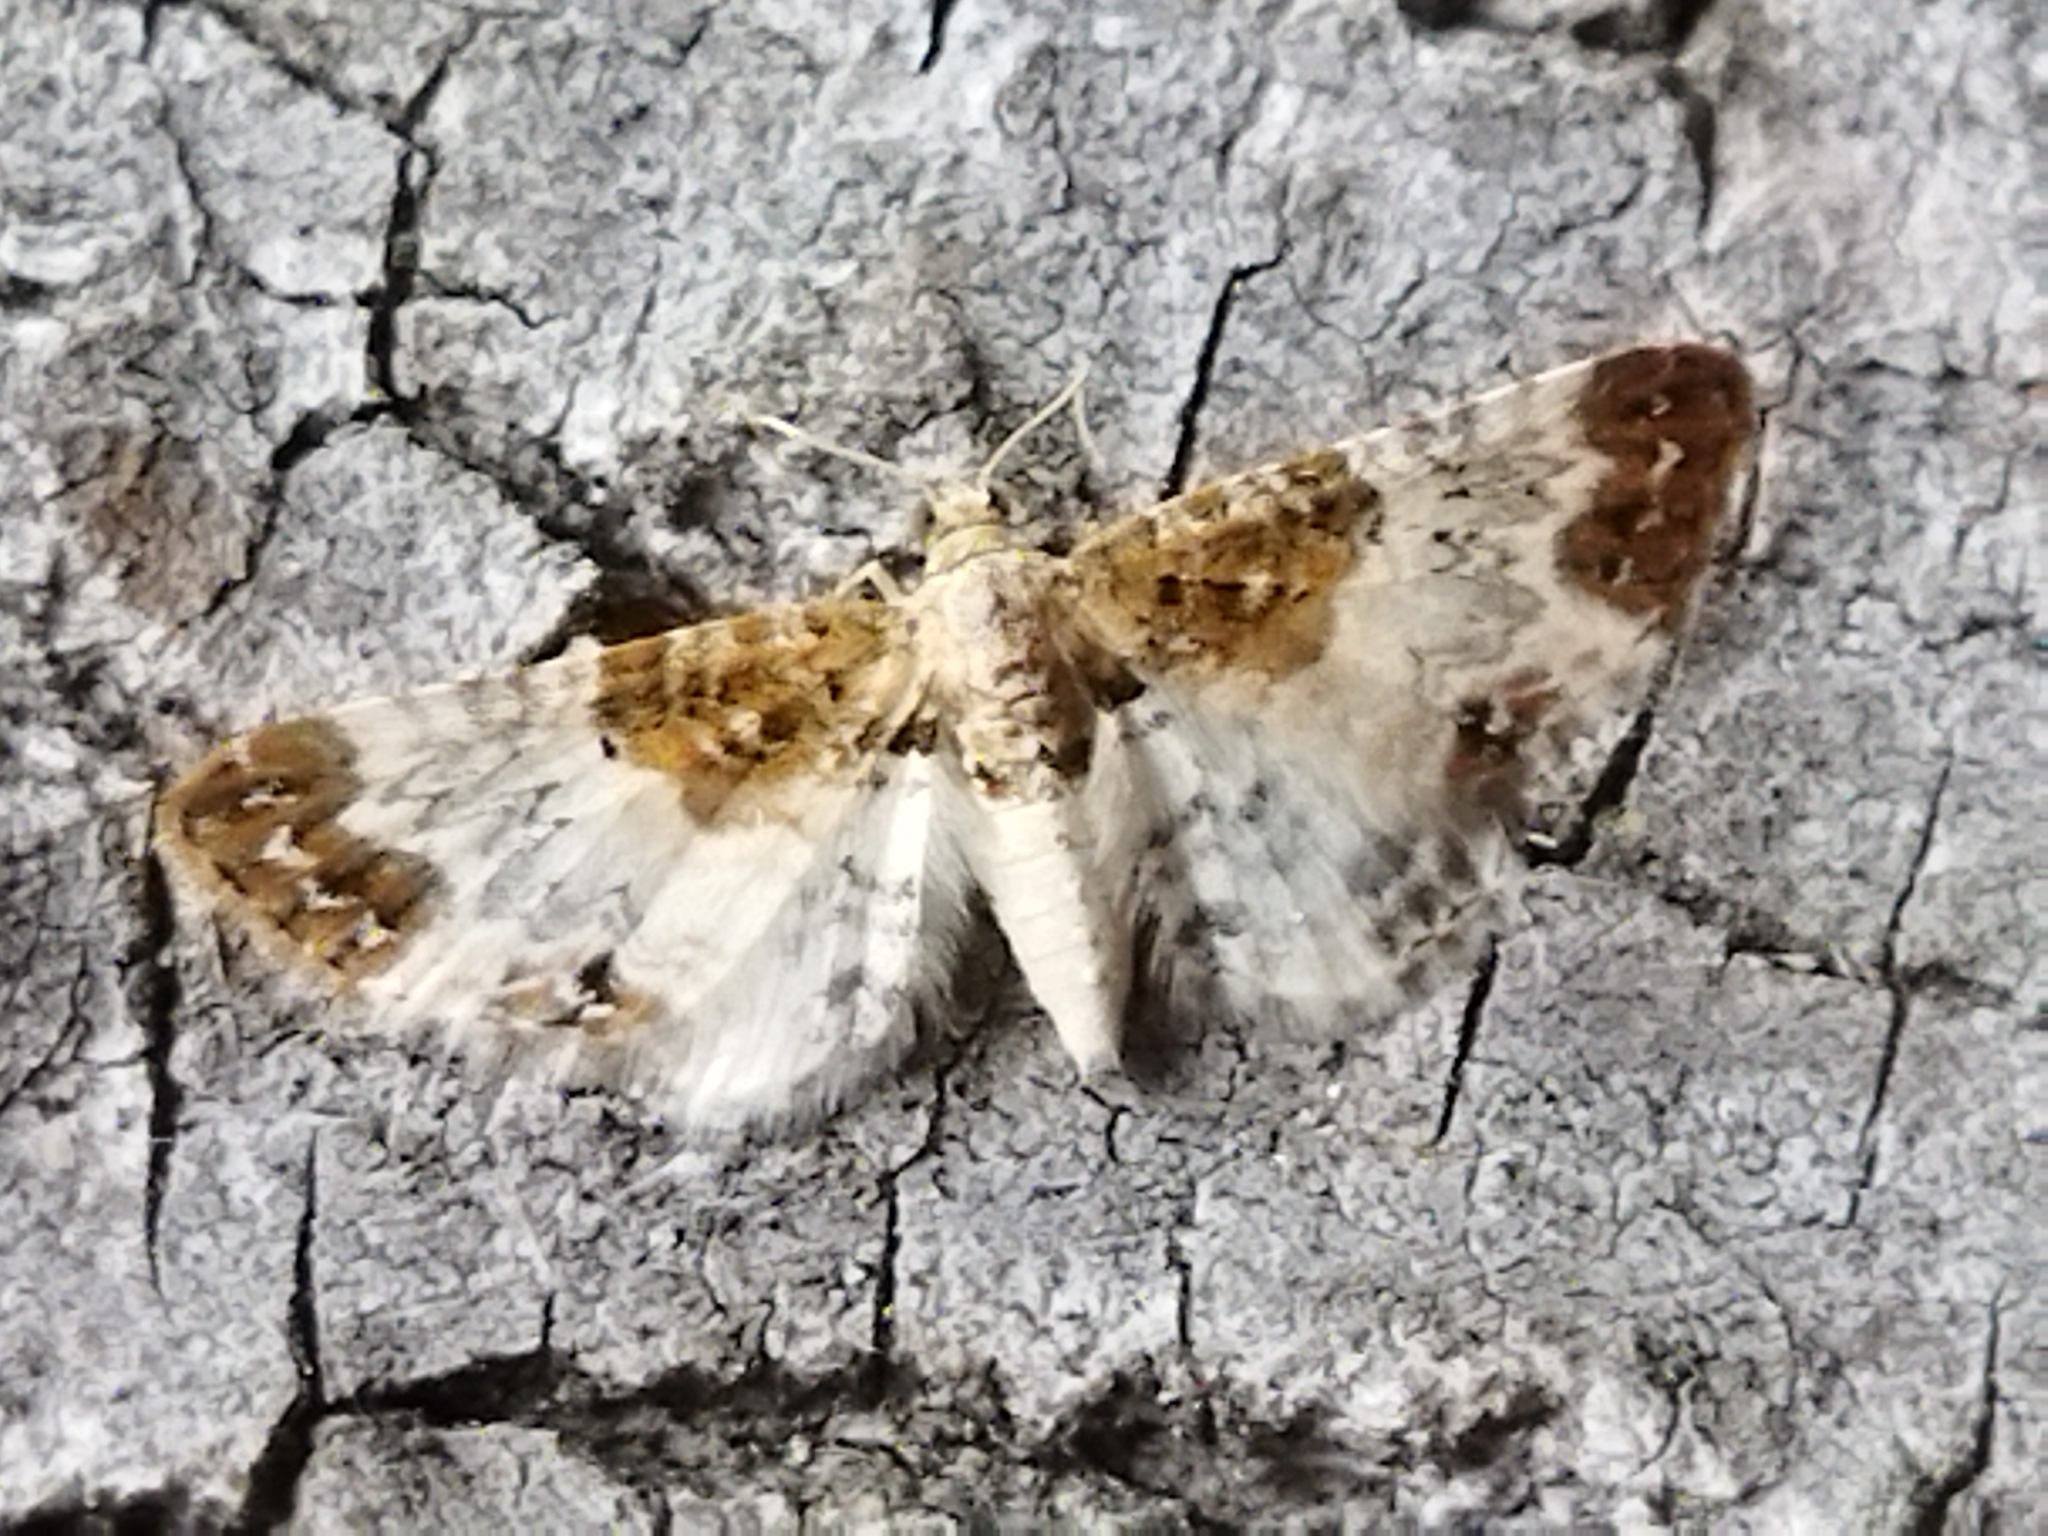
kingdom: Animalia
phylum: Arthropoda
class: Insecta
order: Lepidoptera
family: Geometridae
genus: Eupithecia
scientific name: Eupithecia breviculata
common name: Rusty-shouldered pug
